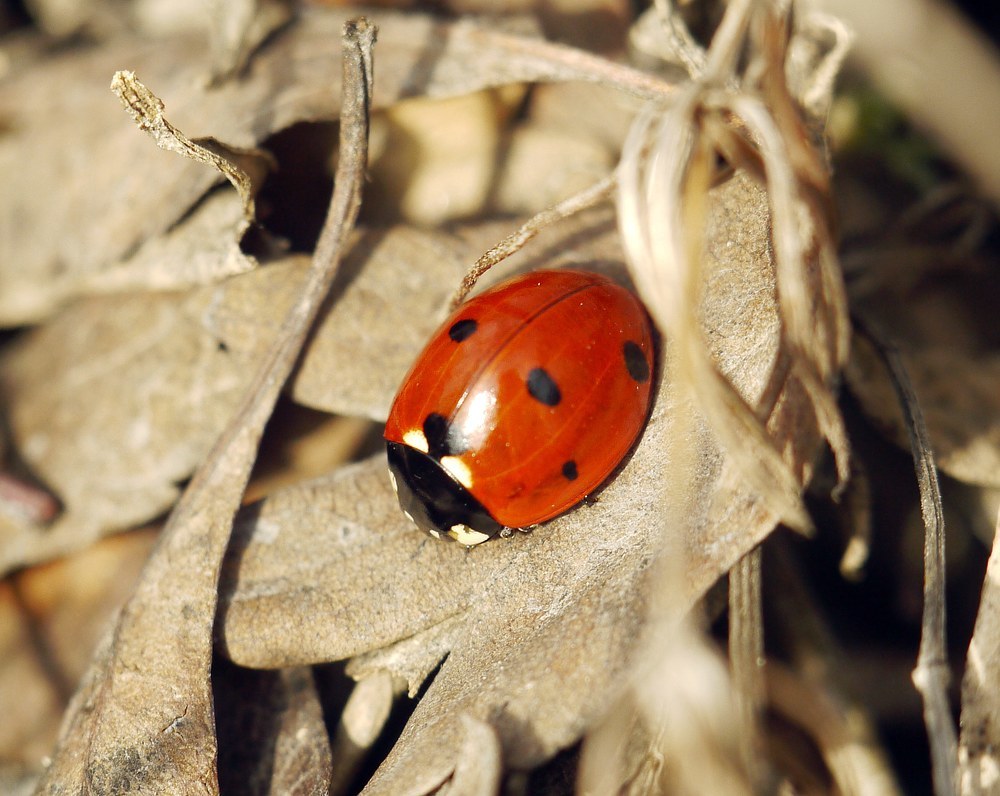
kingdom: Animalia
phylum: Arthropoda
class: Insecta
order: Coleoptera
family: Coccinellidae
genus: Coccinella
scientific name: Coccinella septempunctata
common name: Sevenspotted lady beetle
